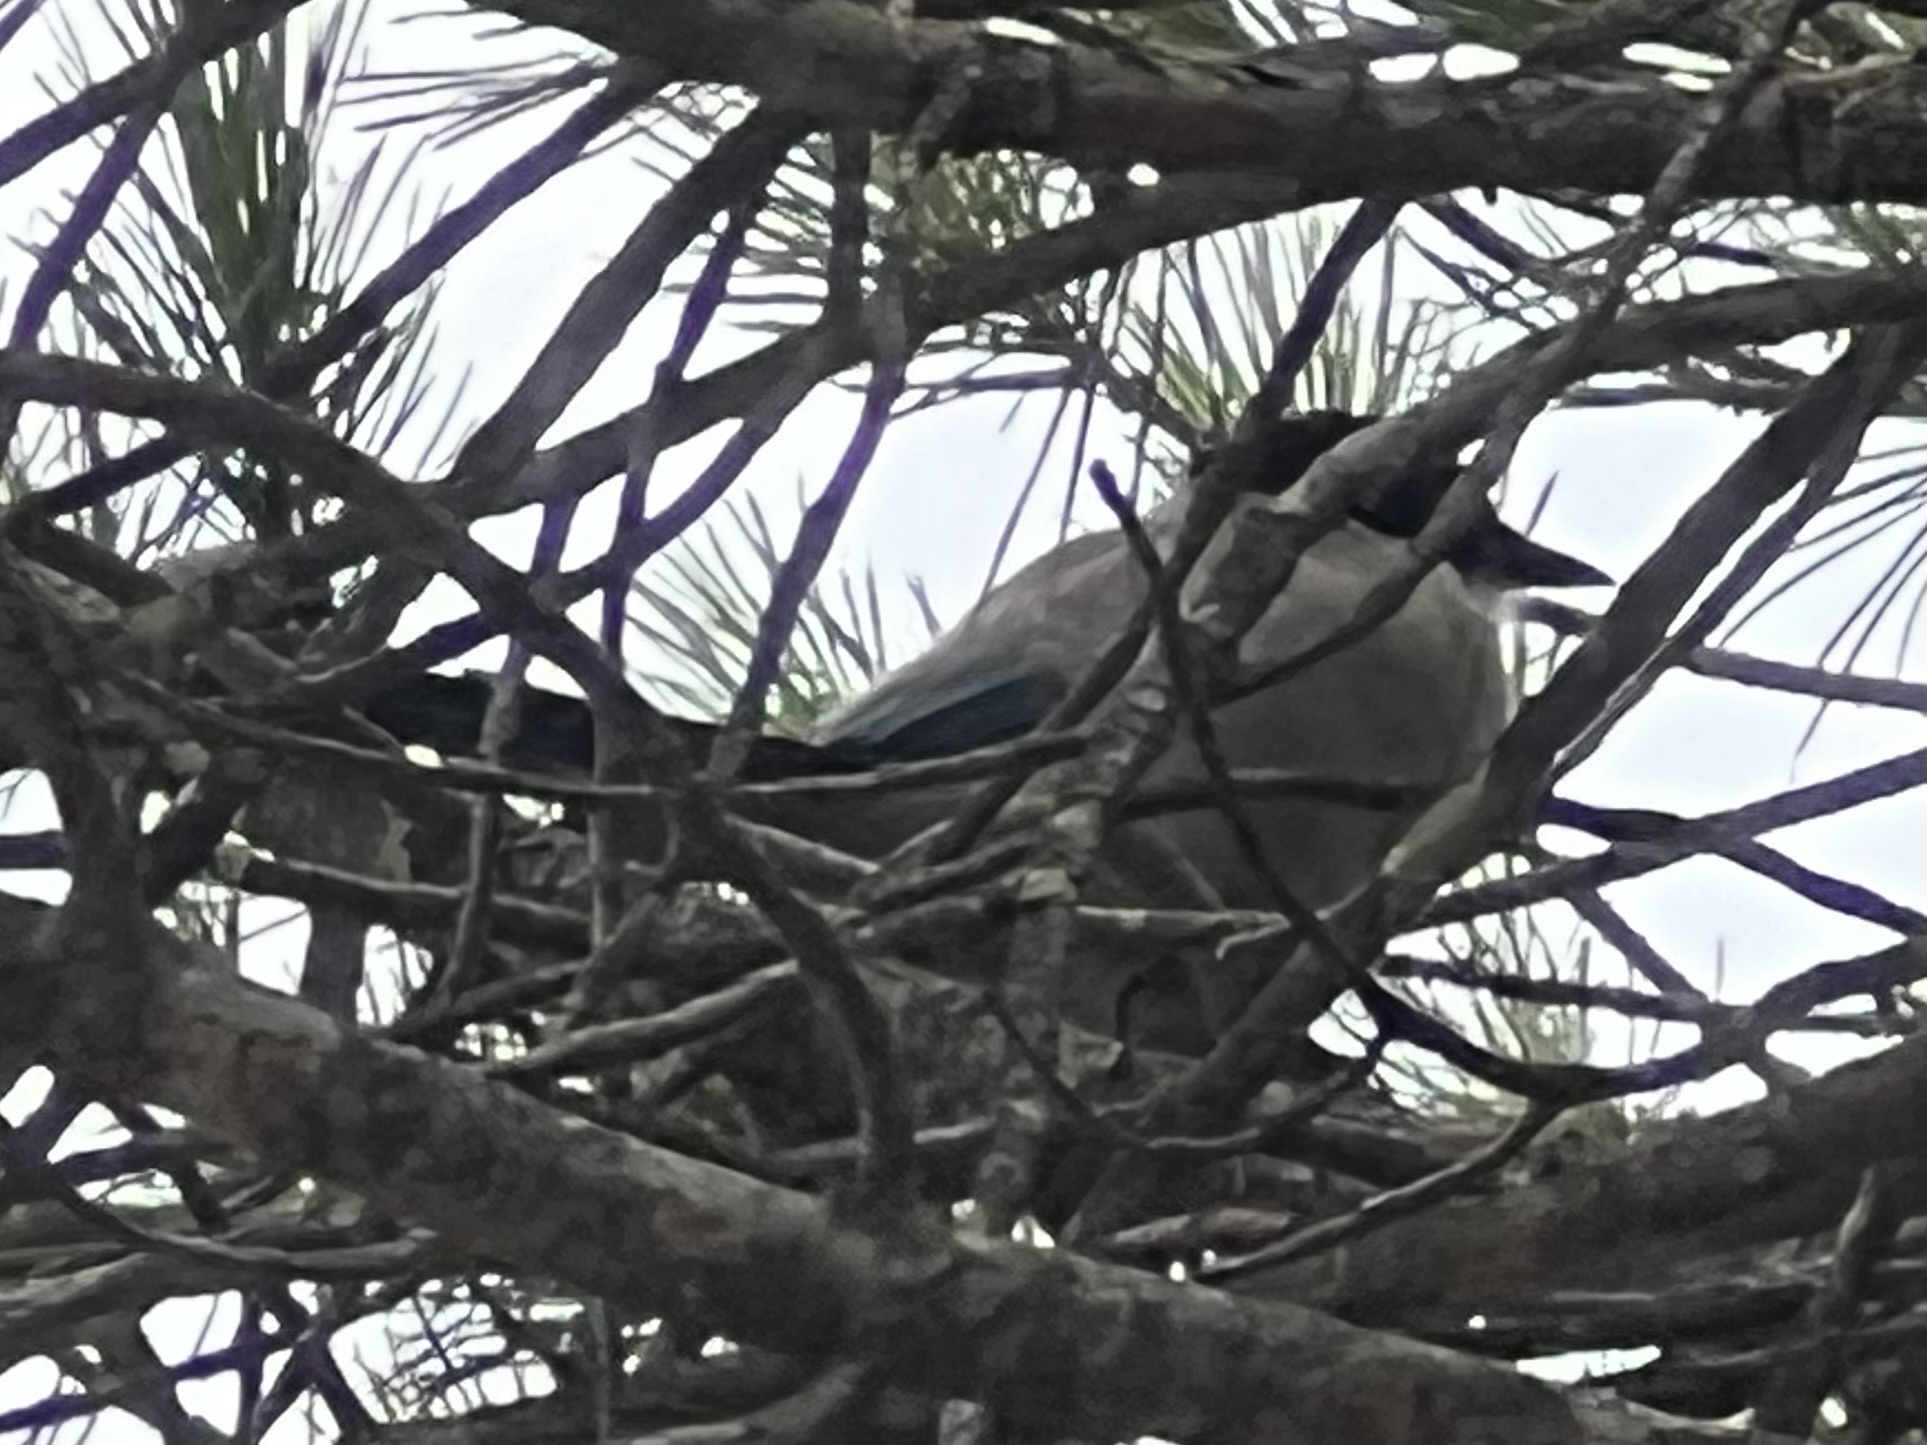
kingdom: Animalia
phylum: Chordata
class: Aves
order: Passeriformes
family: Corvidae
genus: Cyanopica
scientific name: Cyanopica cooki
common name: Iberian magpie
